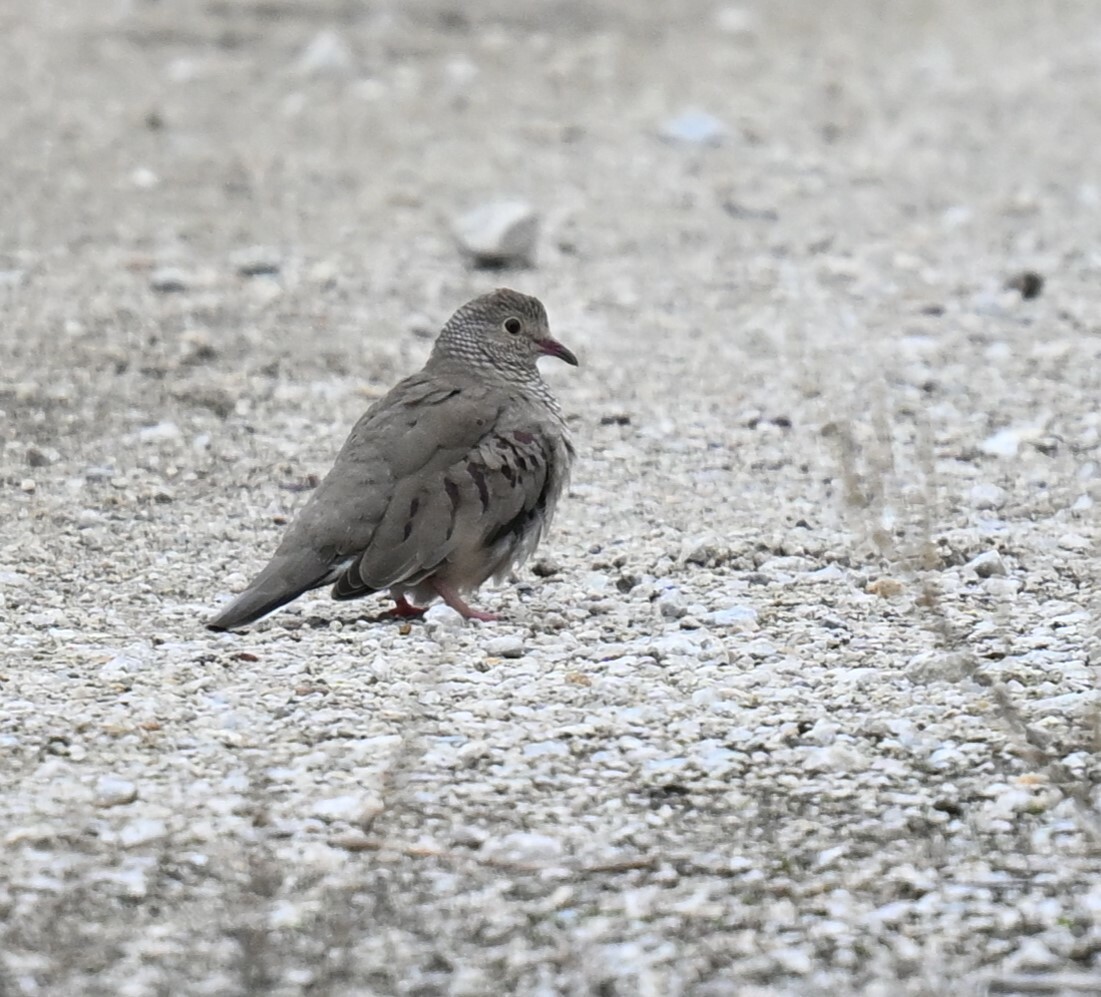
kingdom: Animalia
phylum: Chordata
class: Aves
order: Columbiformes
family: Columbidae
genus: Columbina
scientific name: Columbina passerina
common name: Common ground-dove
